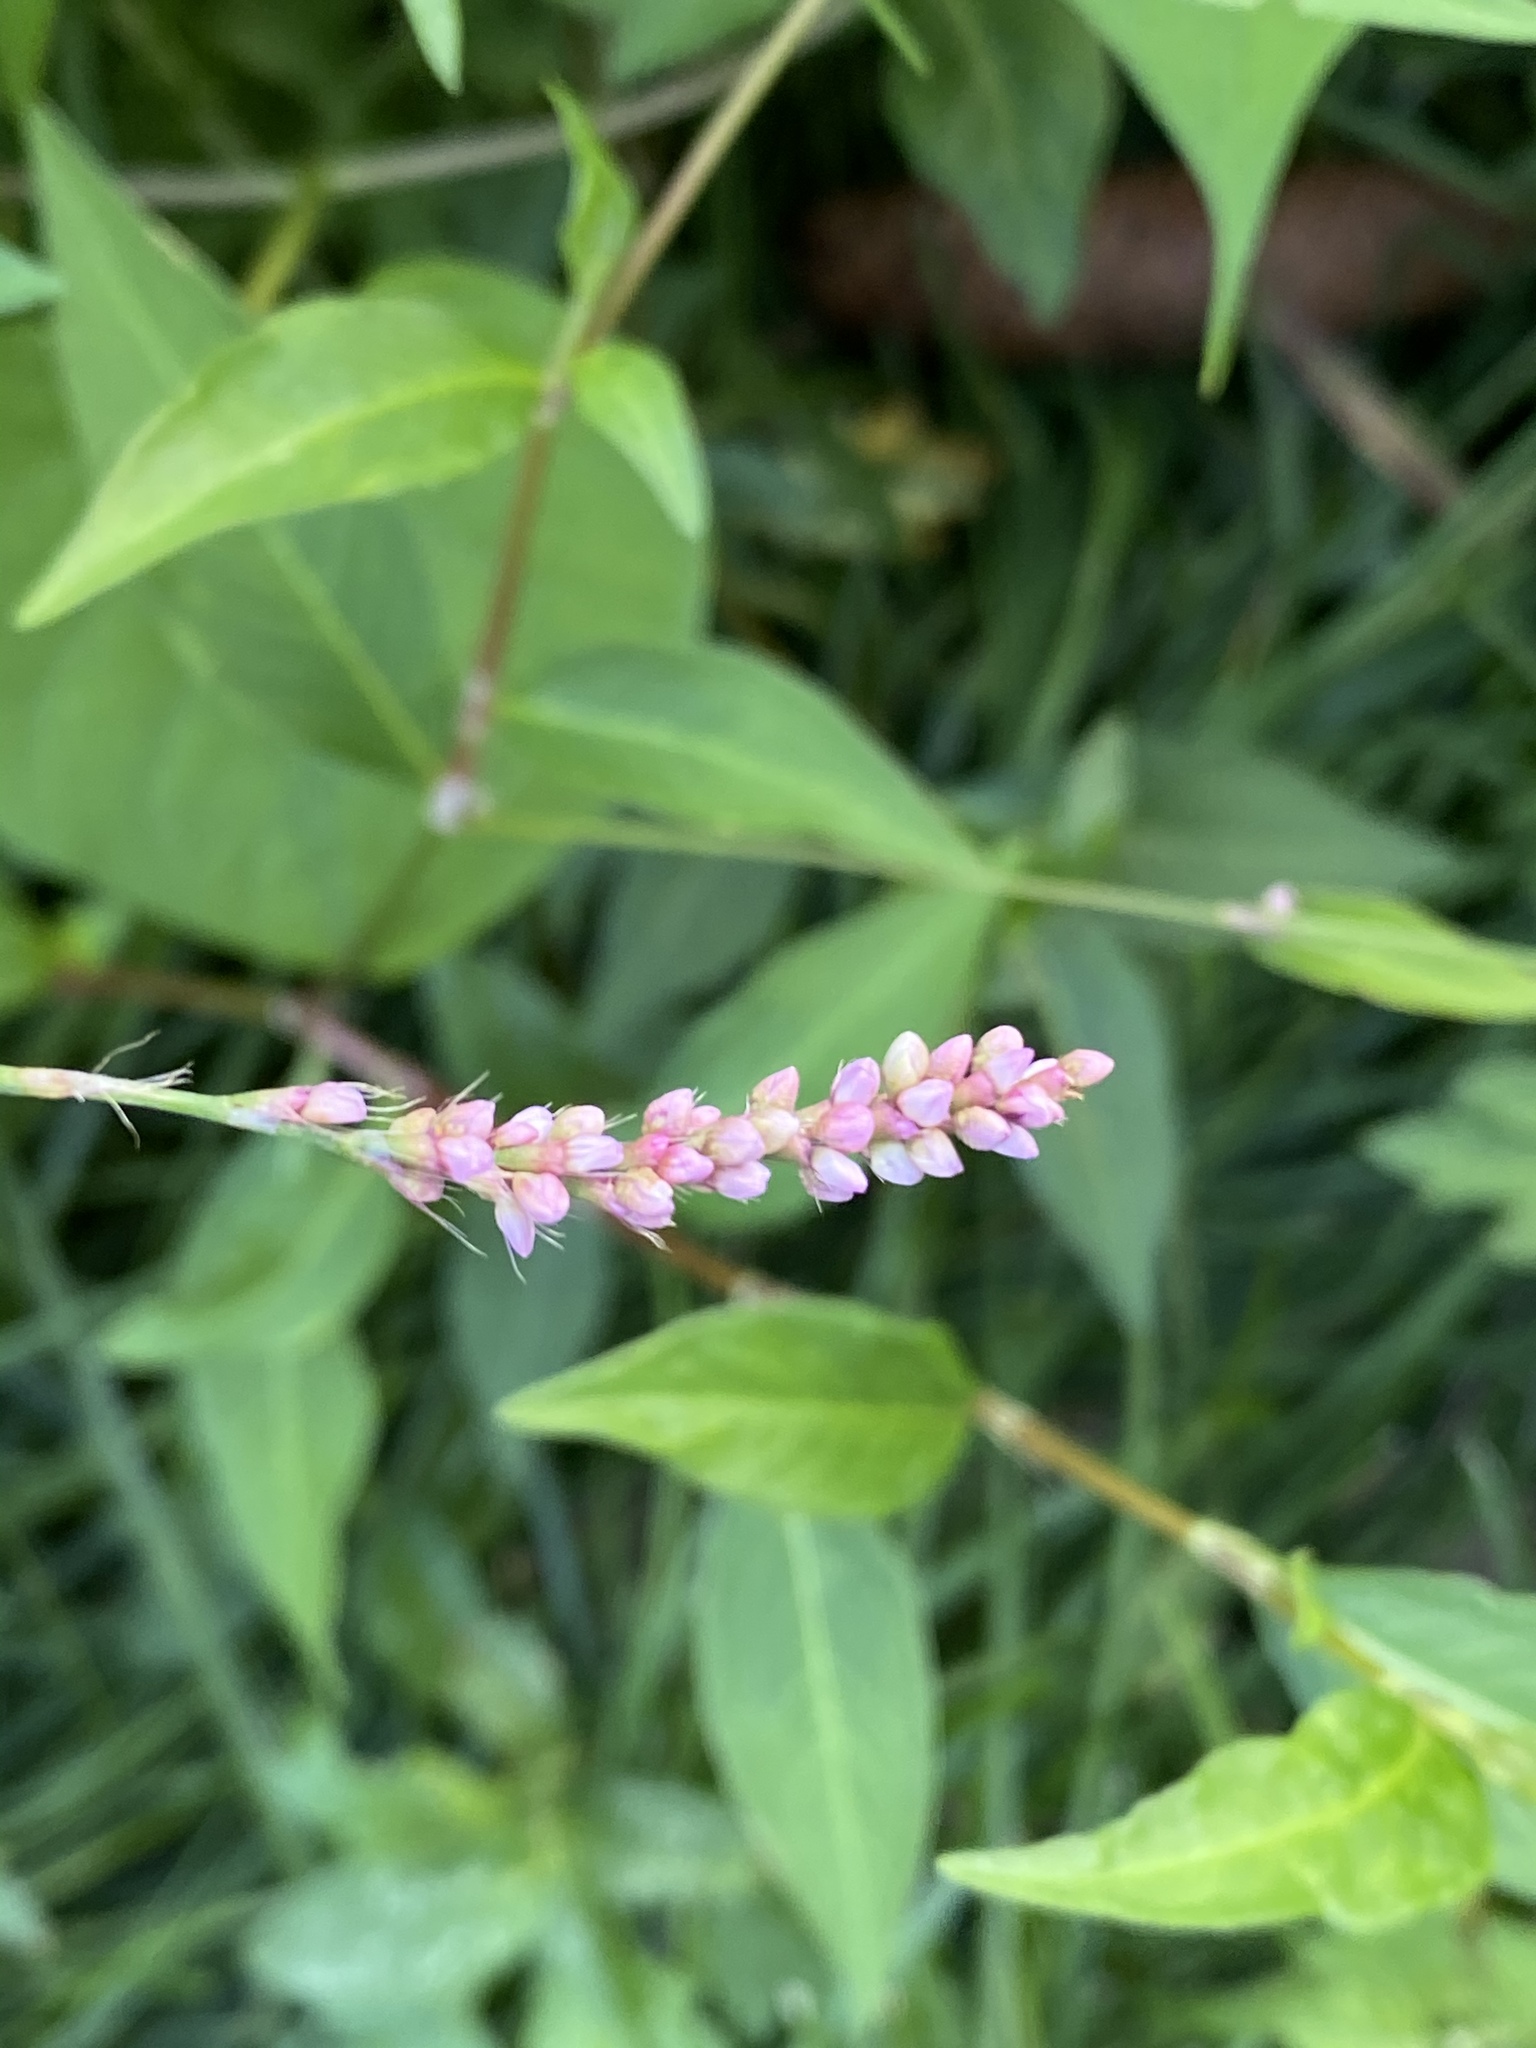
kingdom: Plantae
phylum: Tracheophyta
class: Magnoliopsida
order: Caryophyllales
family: Polygonaceae
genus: Persicaria
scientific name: Persicaria longiseta
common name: Bristly lady's-thumb
